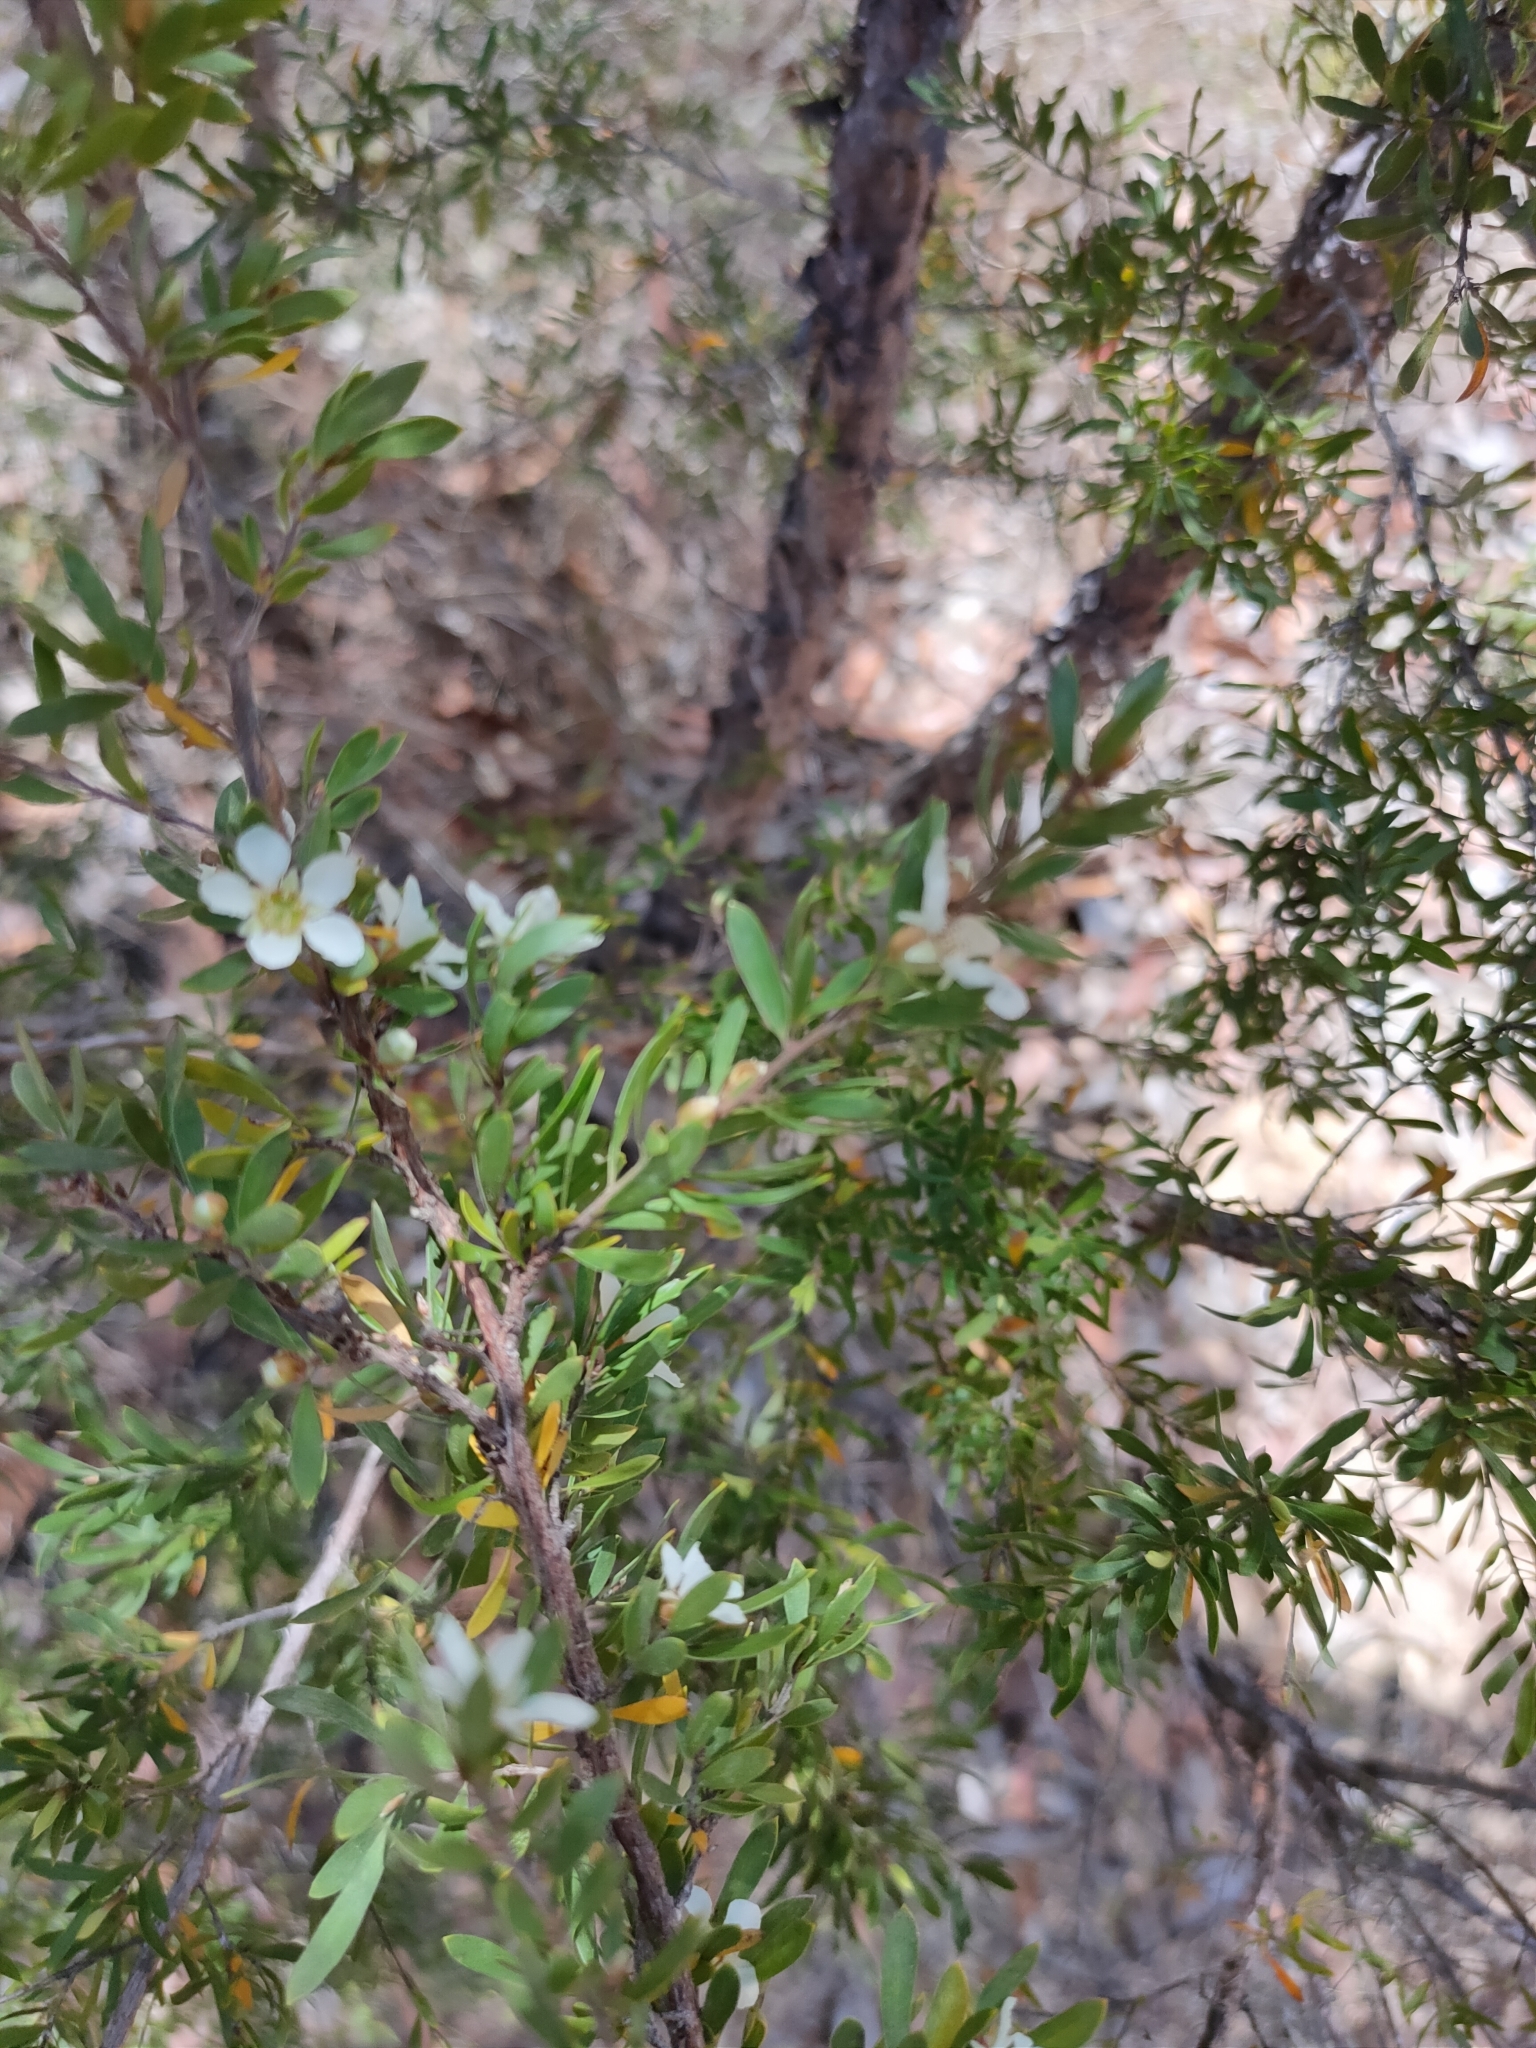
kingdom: Plantae
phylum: Tracheophyta
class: Magnoliopsida
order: Myrtales
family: Myrtaceae
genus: Leptospermum
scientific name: Leptospermum trinervium
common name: Flaky-barked tea-tree
